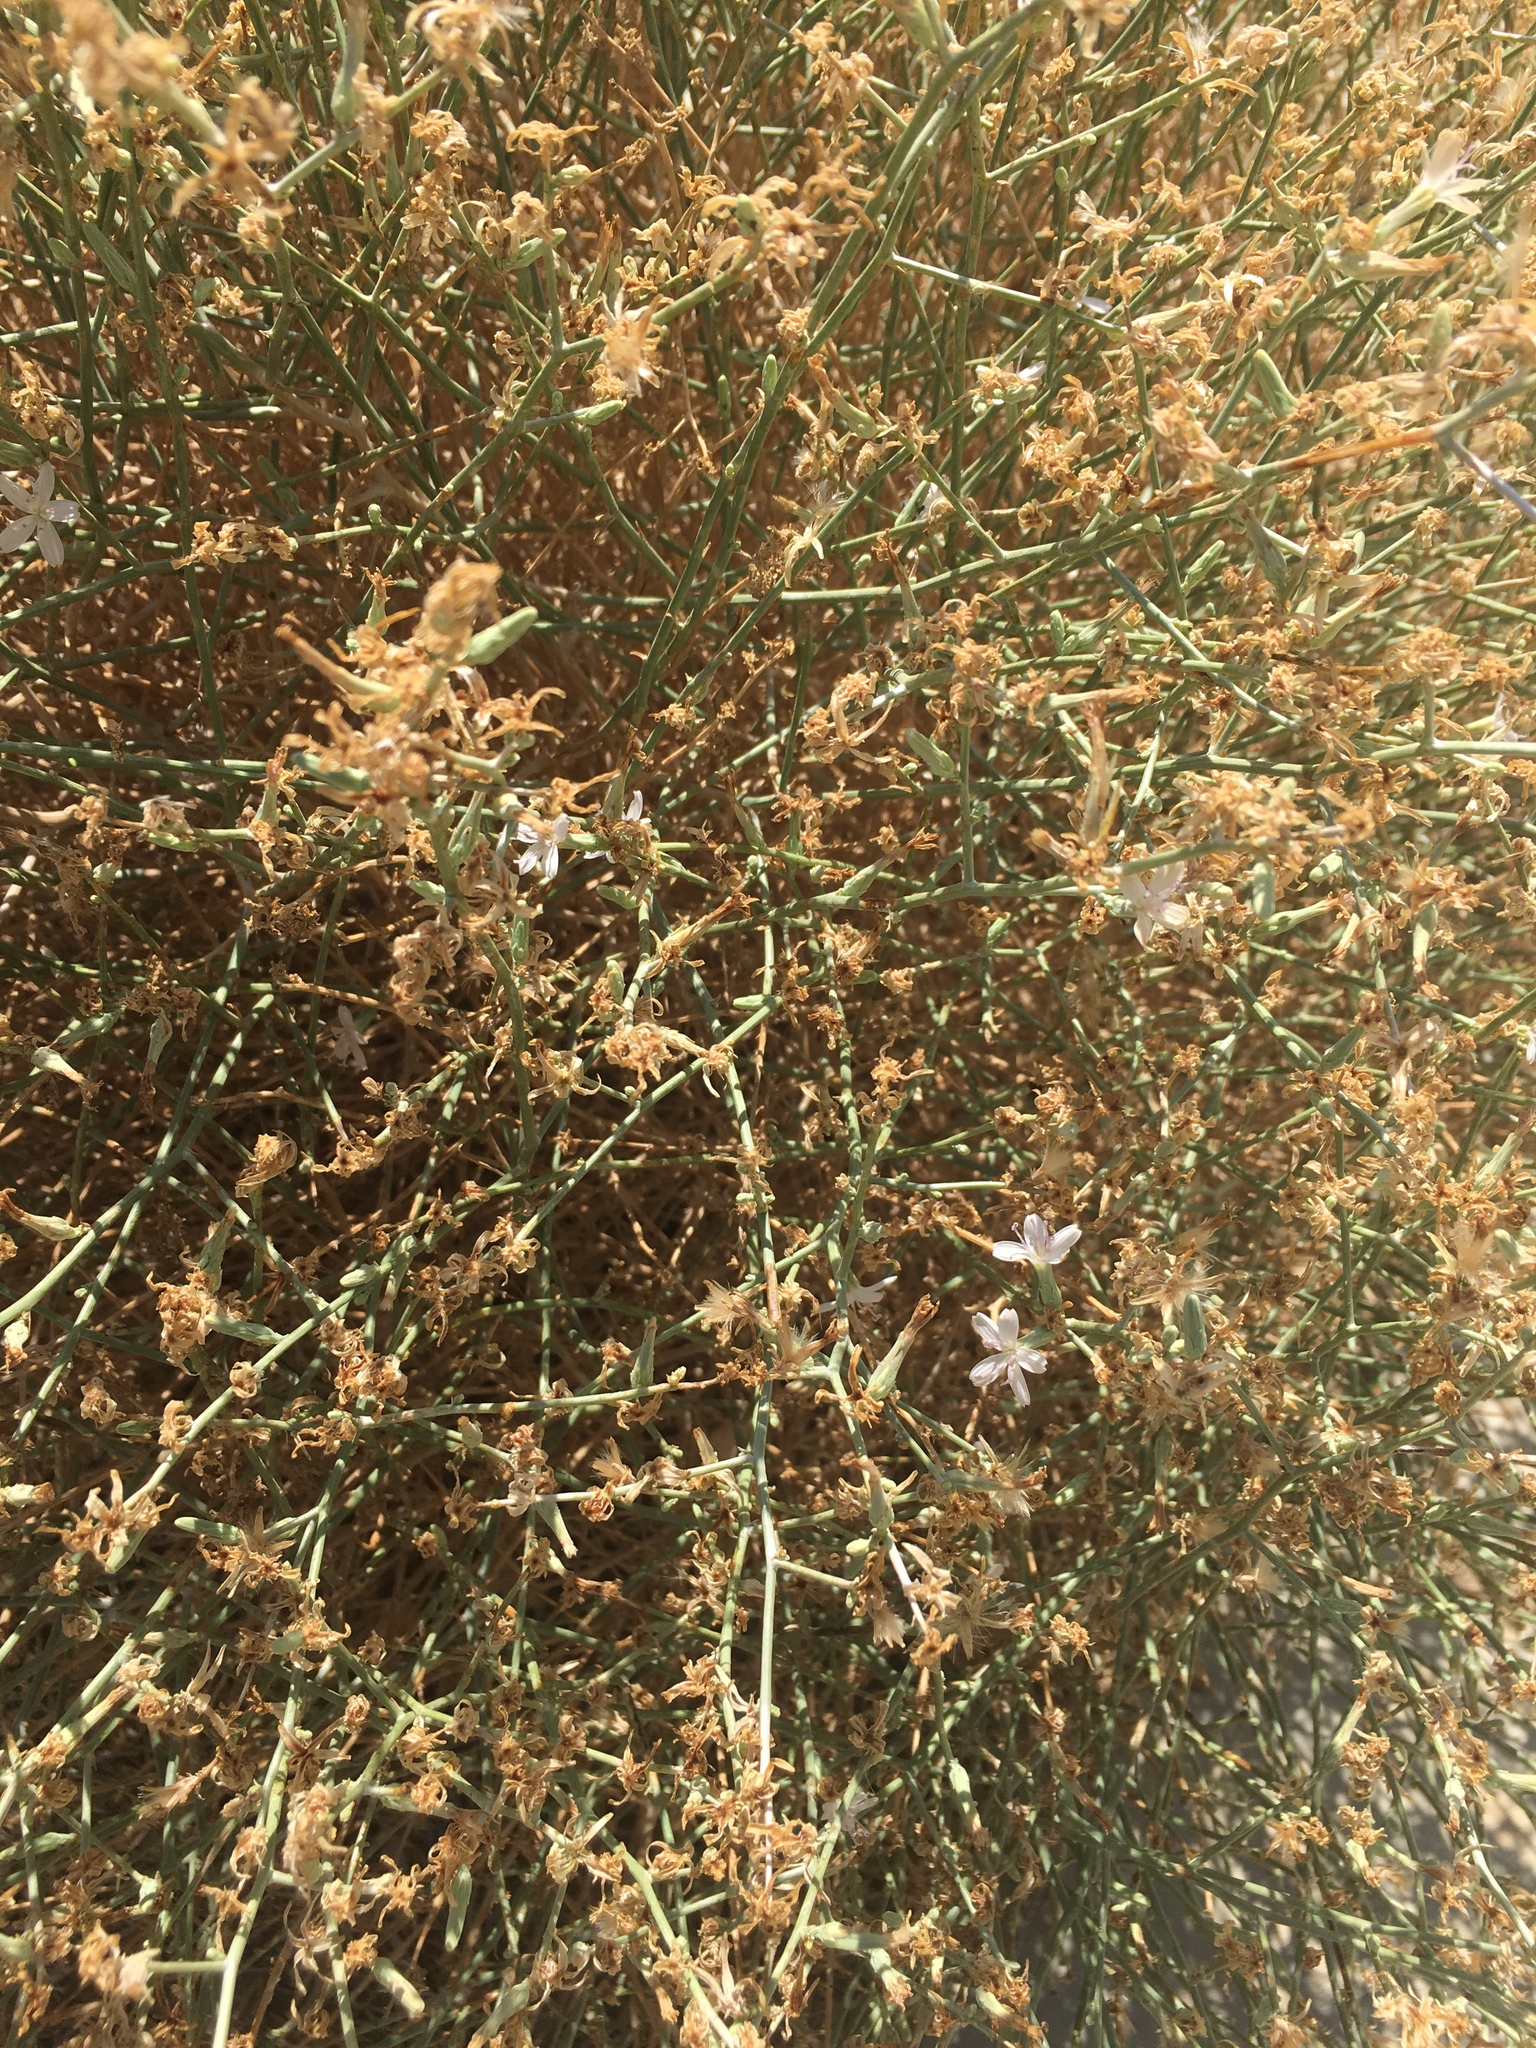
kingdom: Plantae
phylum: Tracheophyta
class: Magnoliopsida
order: Asterales
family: Asteraceae
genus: Stephanomeria
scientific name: Stephanomeria pauciflora
